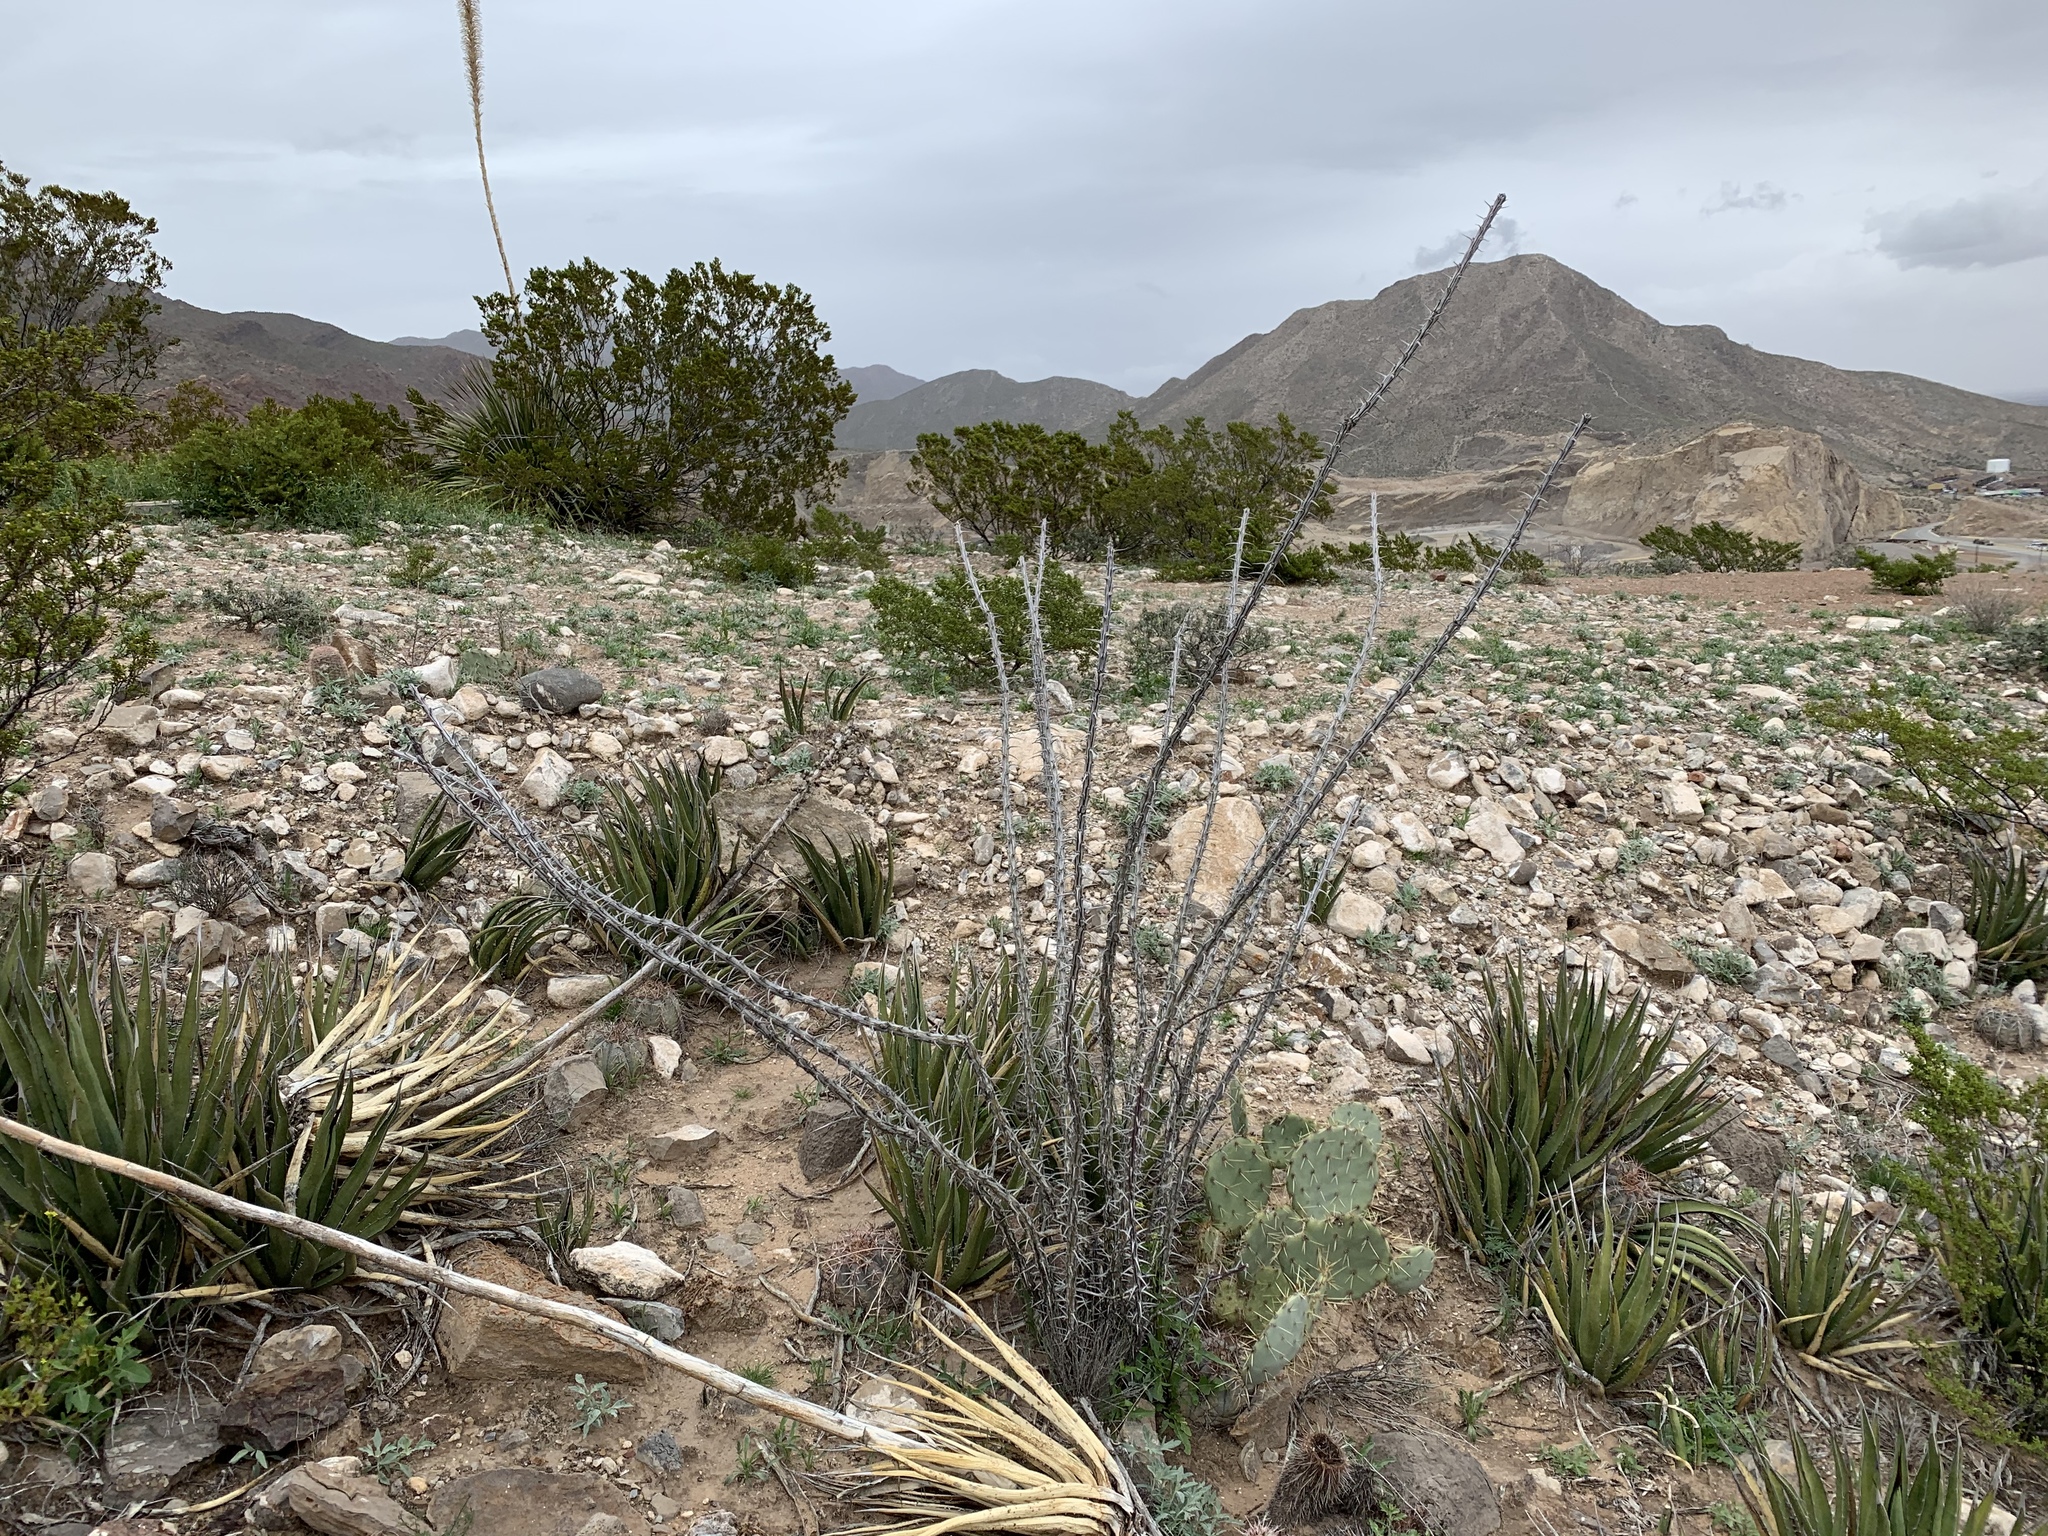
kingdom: Plantae
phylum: Tracheophyta
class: Magnoliopsida
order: Ericales
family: Fouquieriaceae
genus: Fouquieria
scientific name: Fouquieria splendens
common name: Vine-cactus
